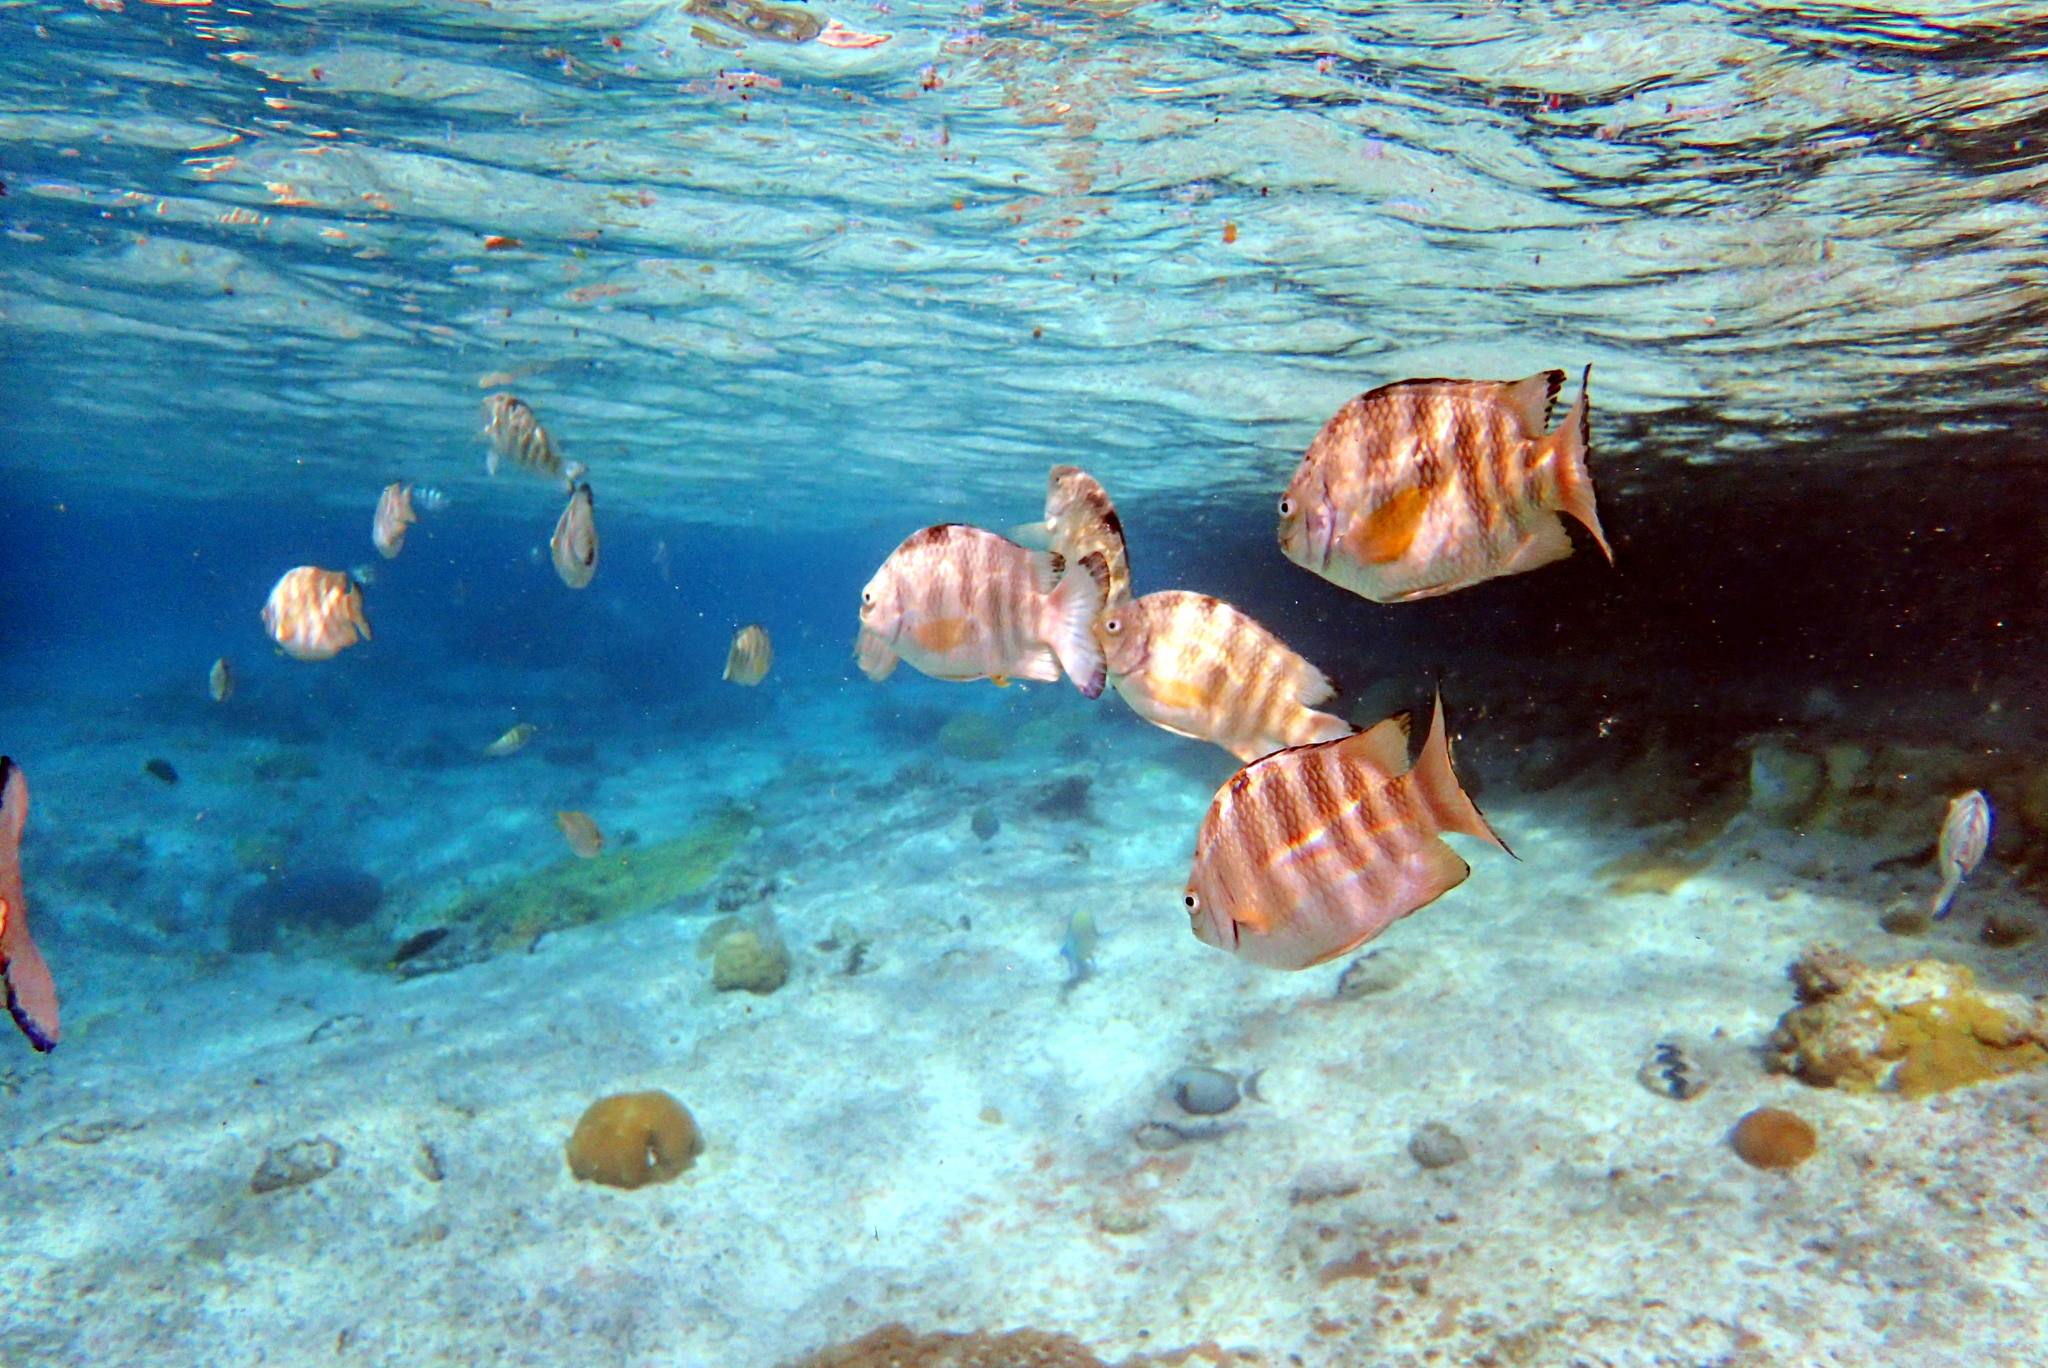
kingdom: Animalia
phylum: Chordata
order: Perciformes
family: Pomacentridae
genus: Abudefduf
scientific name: Abudefduf septemfasciatus
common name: Banded sergeant
